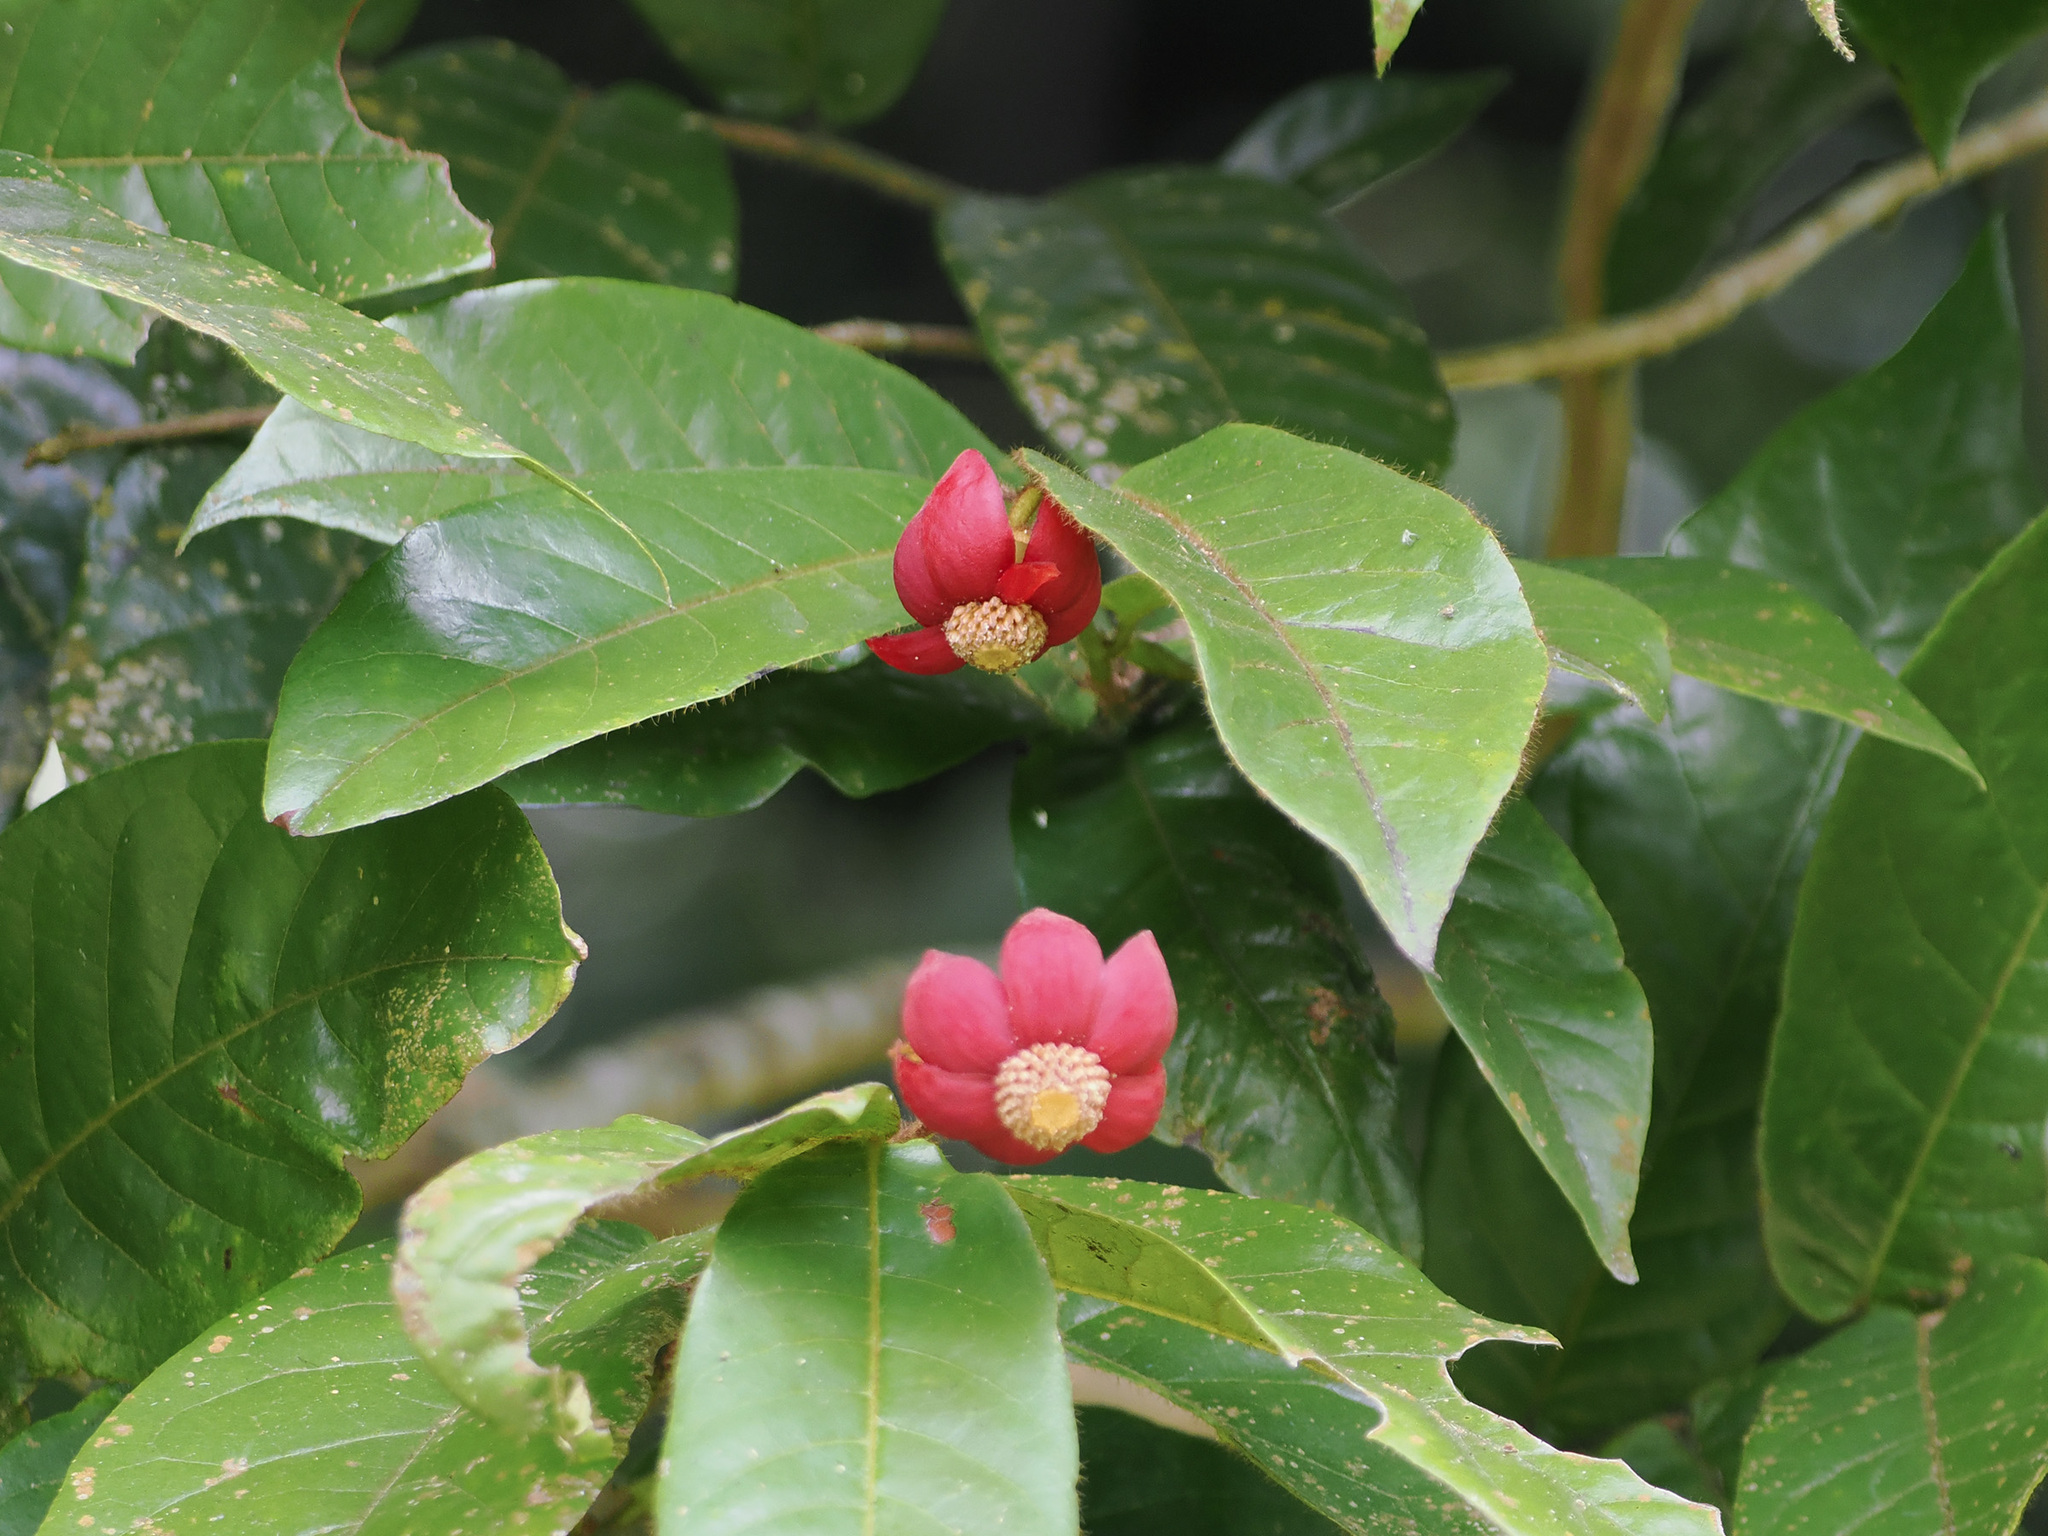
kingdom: Plantae
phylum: Tracheophyta
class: Magnoliopsida
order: Magnoliales
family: Annonaceae
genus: Uvaria
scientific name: Uvaria hirsuta
